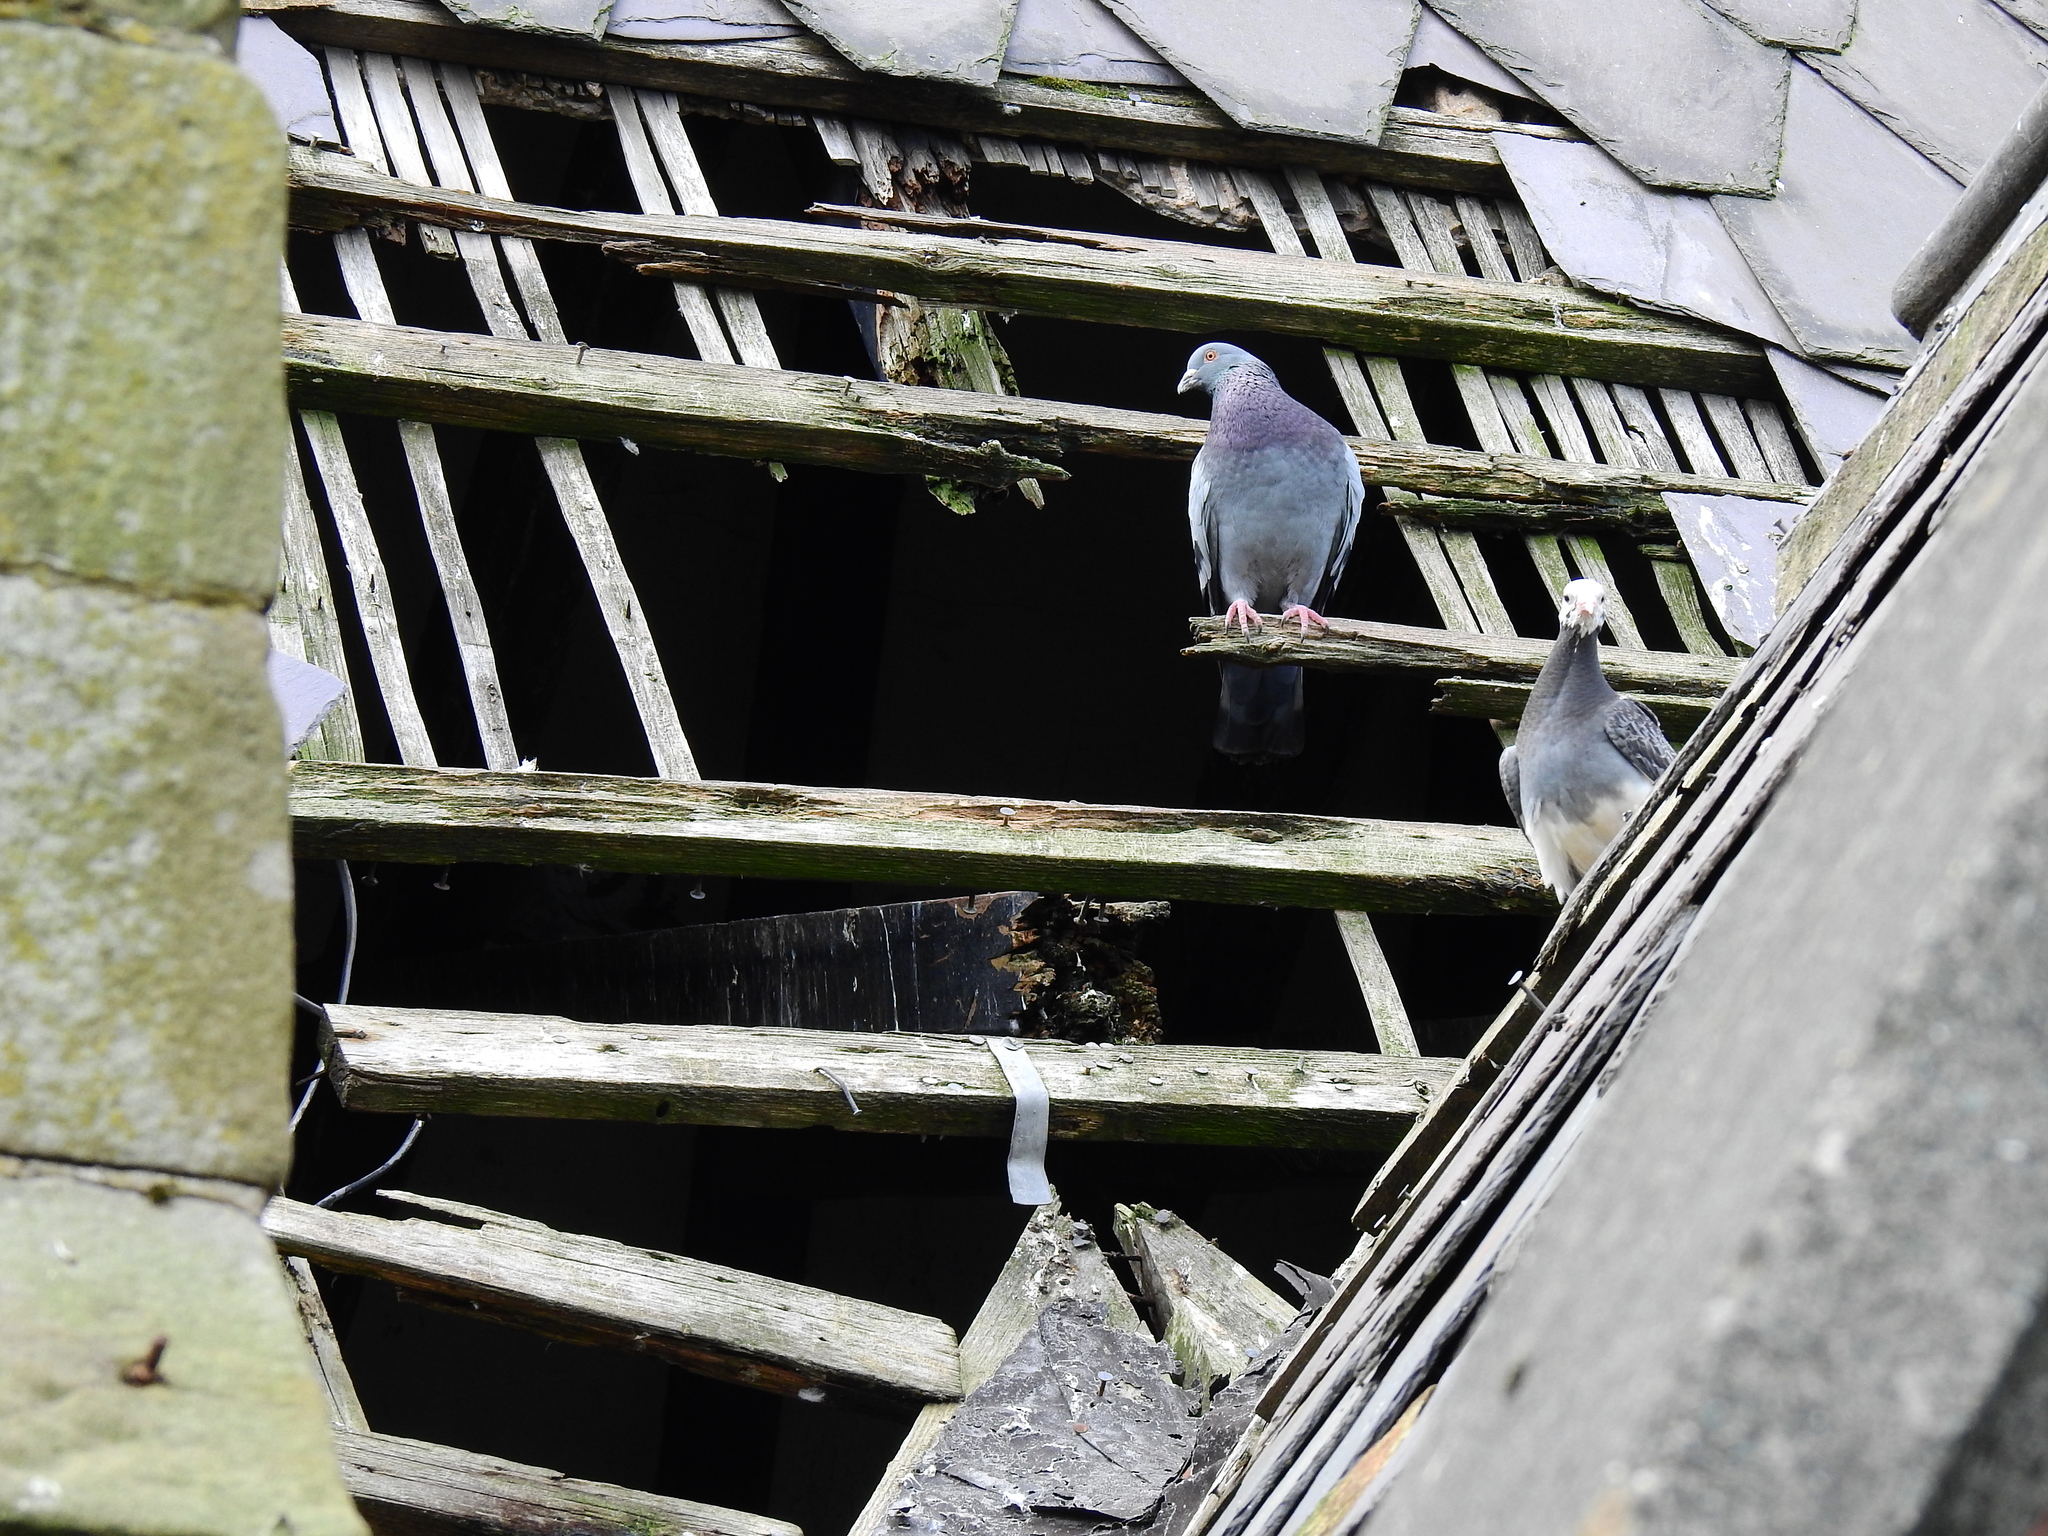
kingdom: Animalia
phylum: Chordata
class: Aves
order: Columbiformes
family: Columbidae
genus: Columba
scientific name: Columba livia
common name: Rock pigeon
